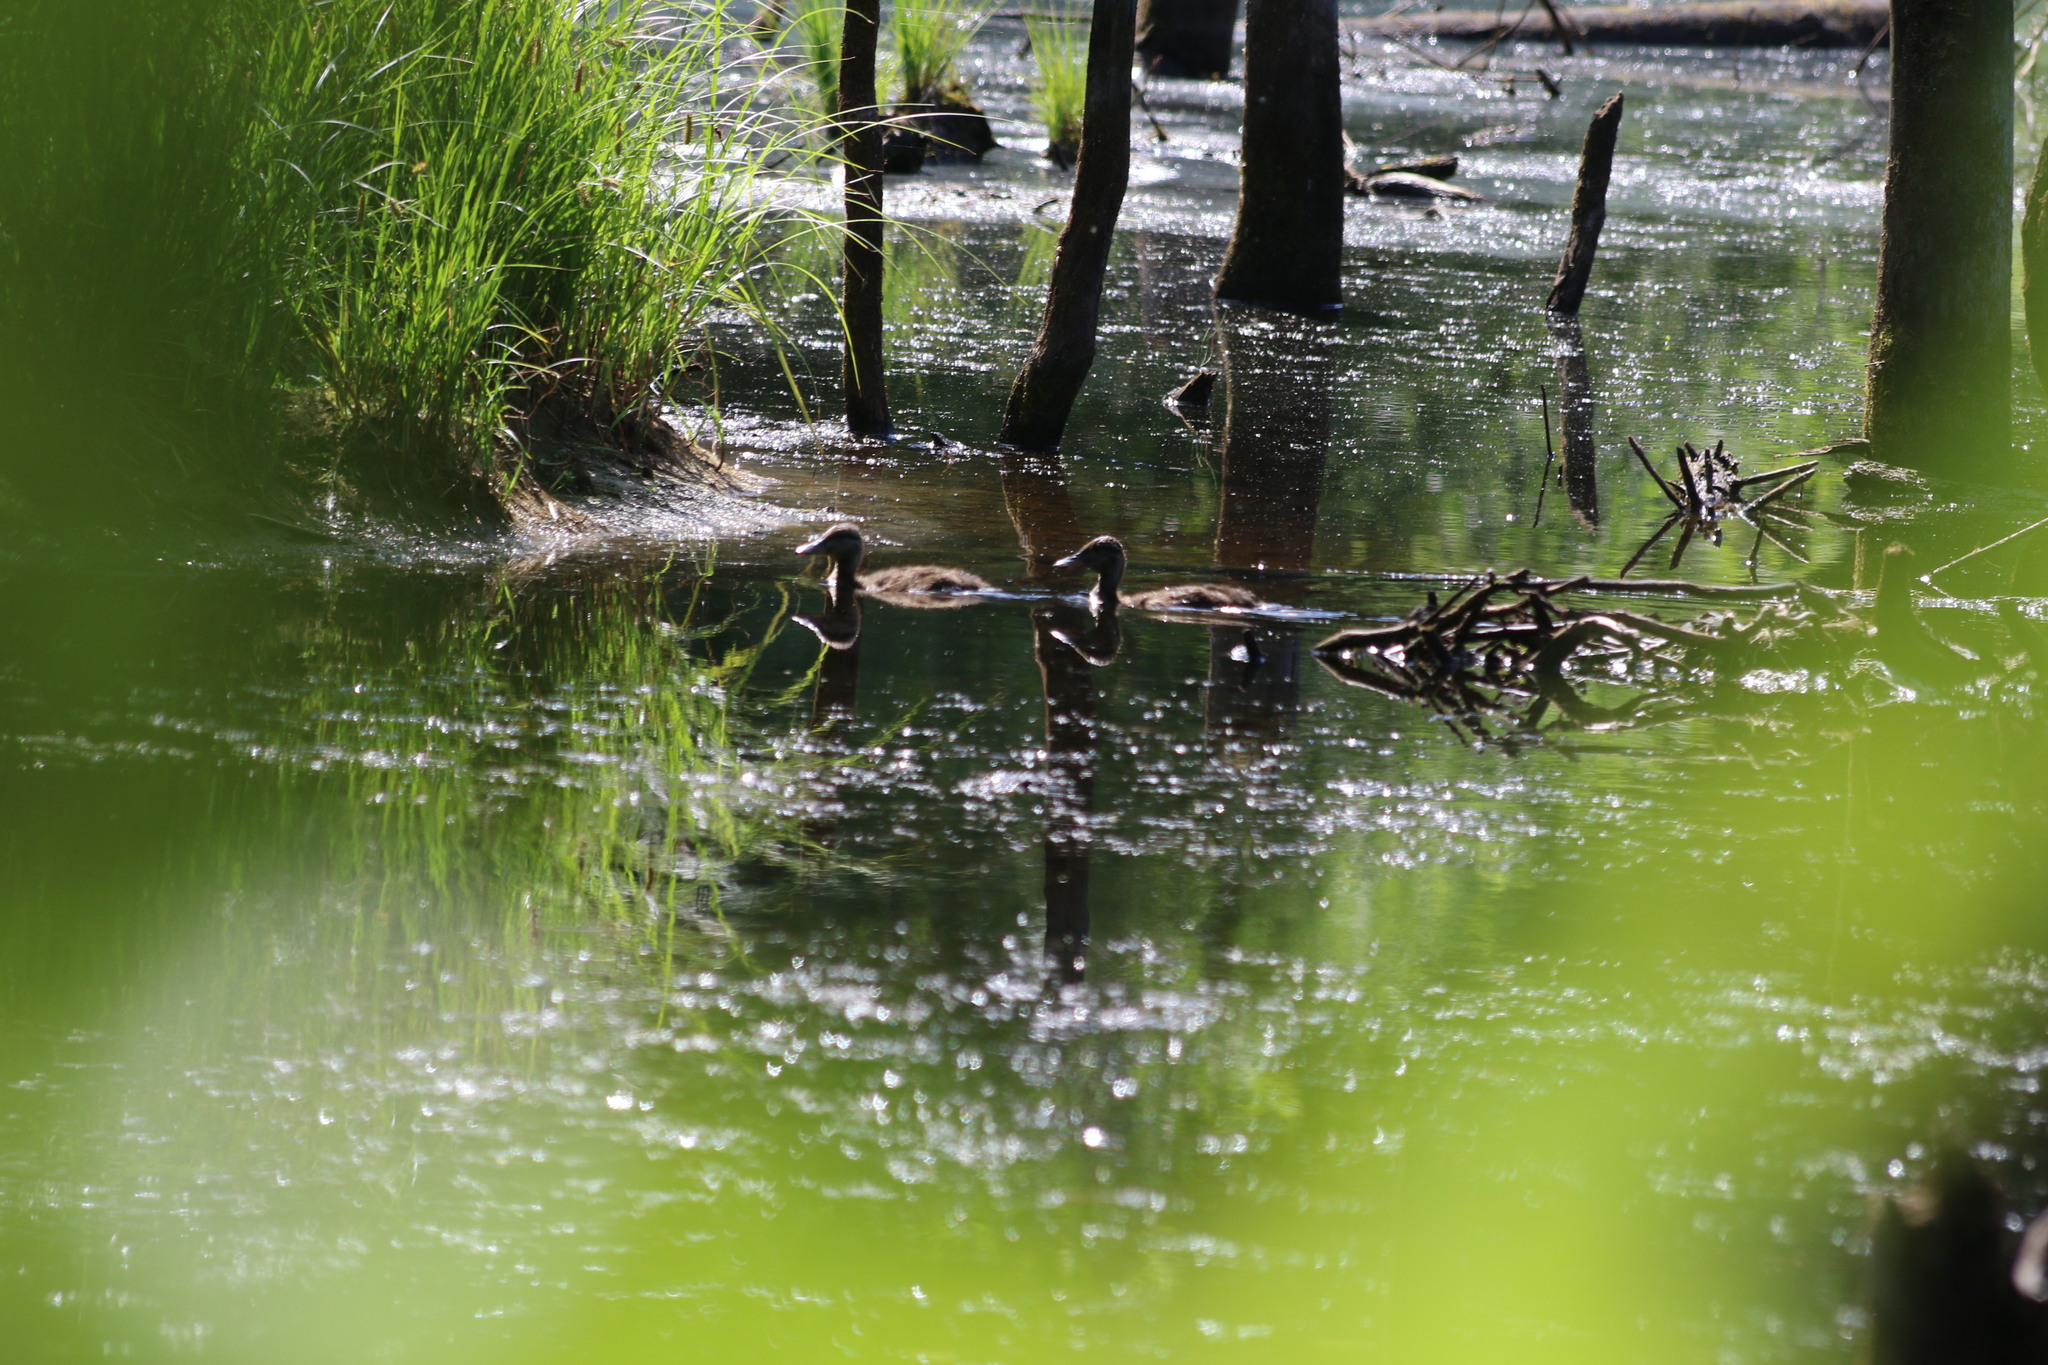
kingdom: Animalia
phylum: Chordata
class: Aves
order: Anseriformes
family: Anatidae
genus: Anas
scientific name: Anas platyrhynchos
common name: Mallard
